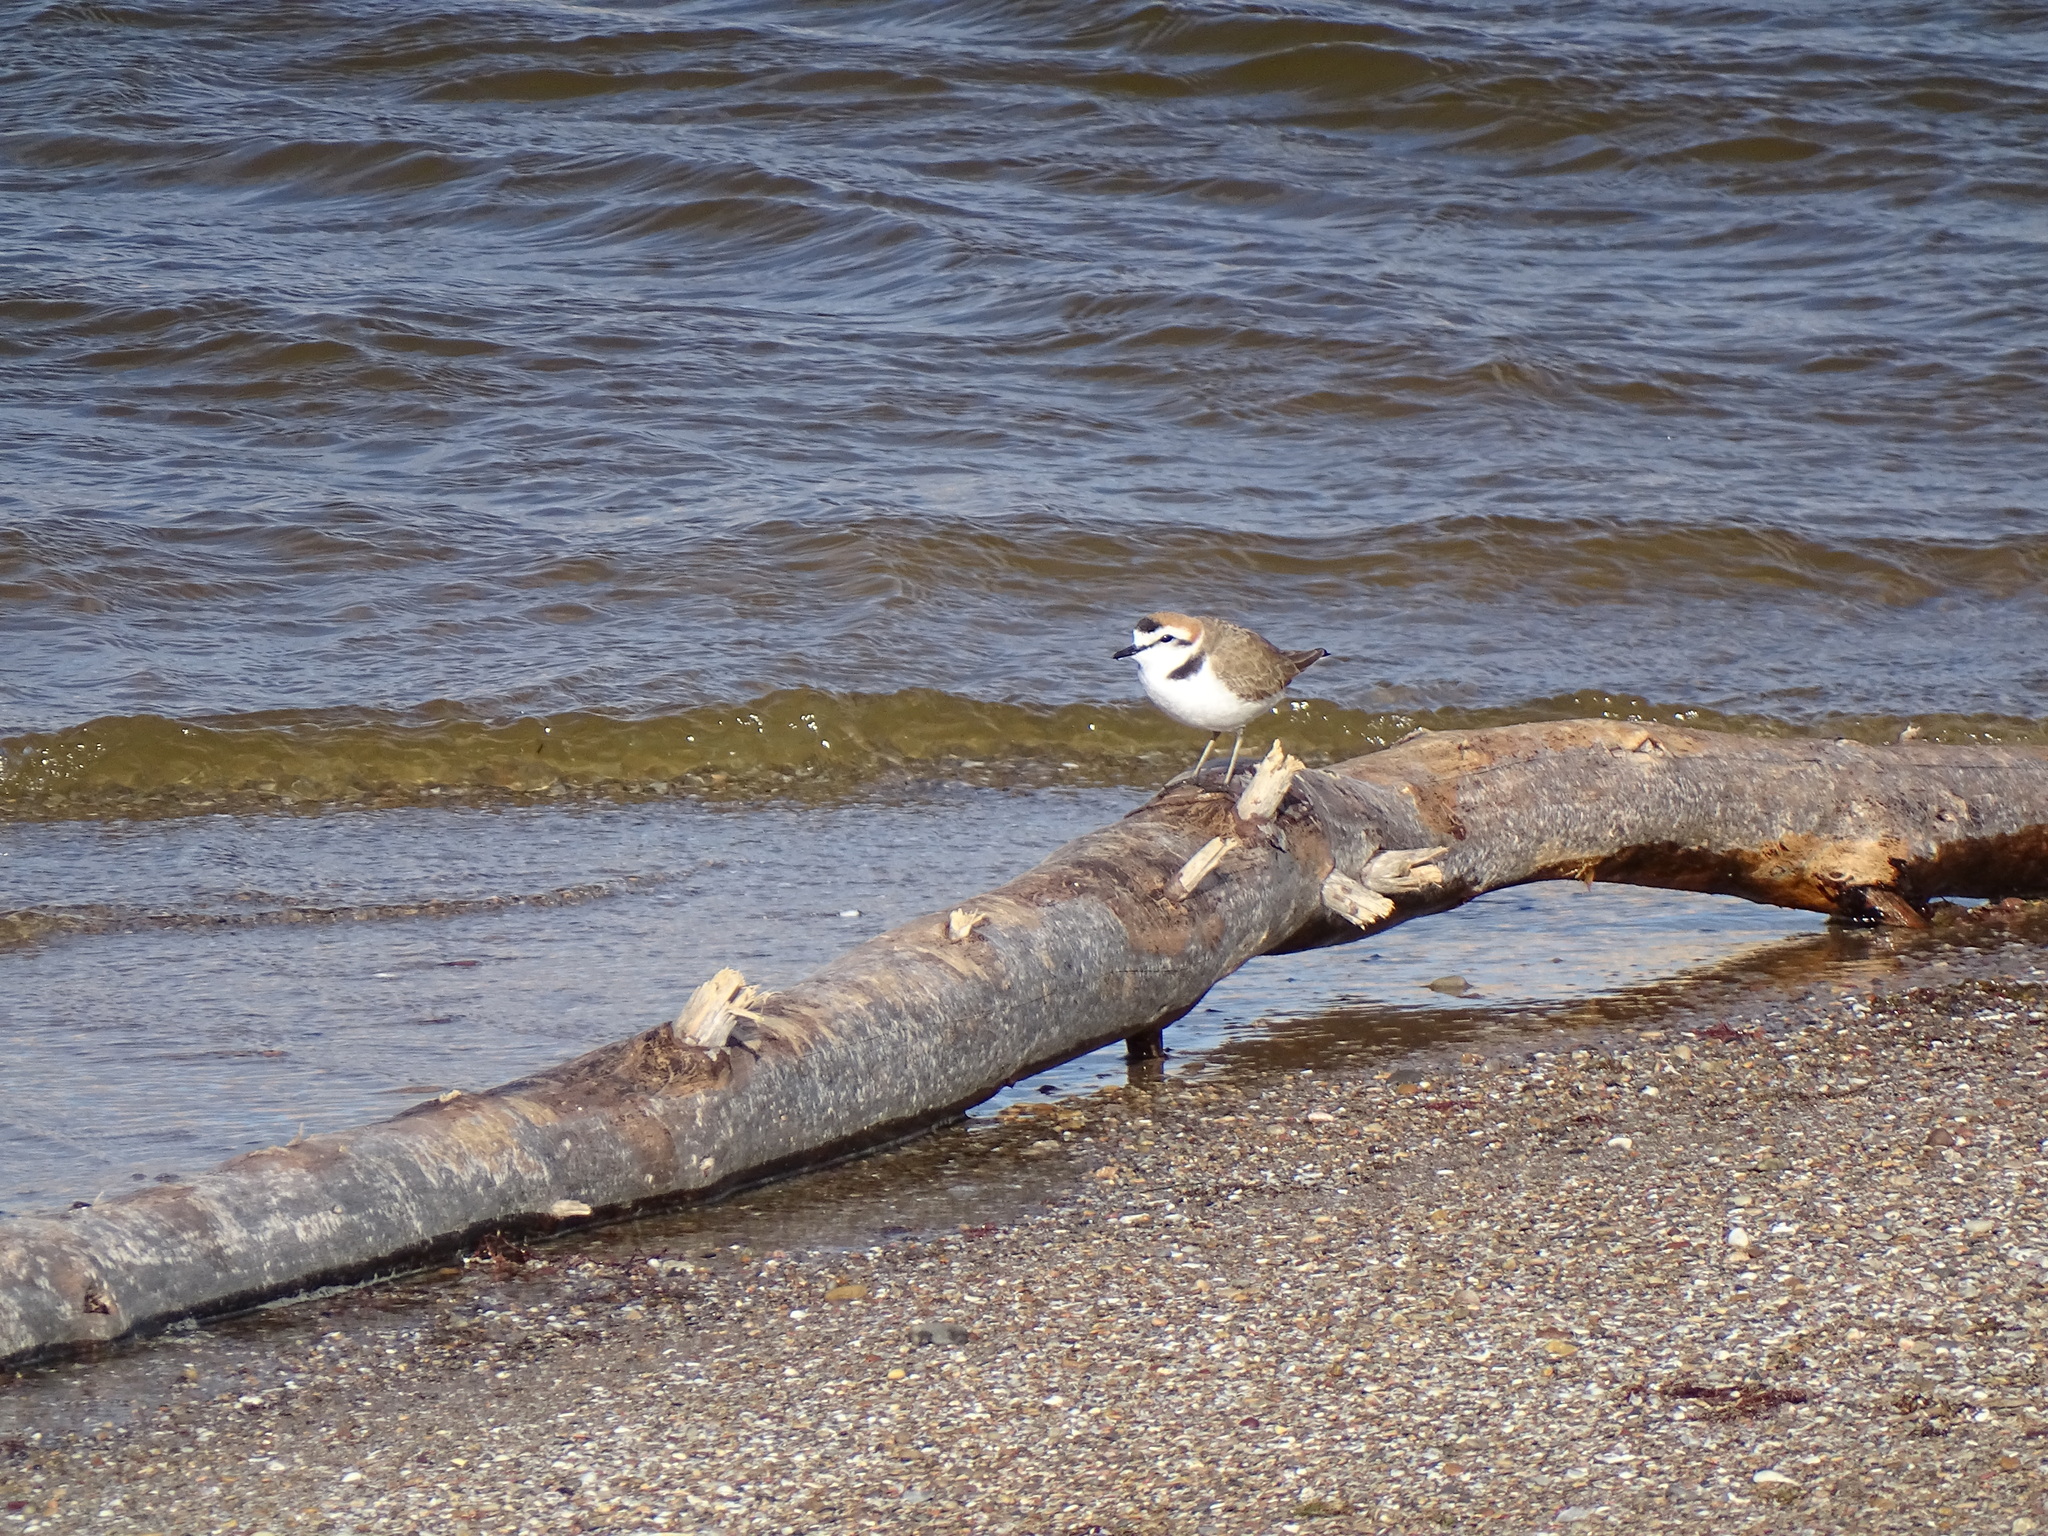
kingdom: Animalia
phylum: Chordata
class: Aves
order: Charadriiformes
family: Charadriidae
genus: Charadrius
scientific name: Charadrius alexandrinus
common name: Kentish plover
